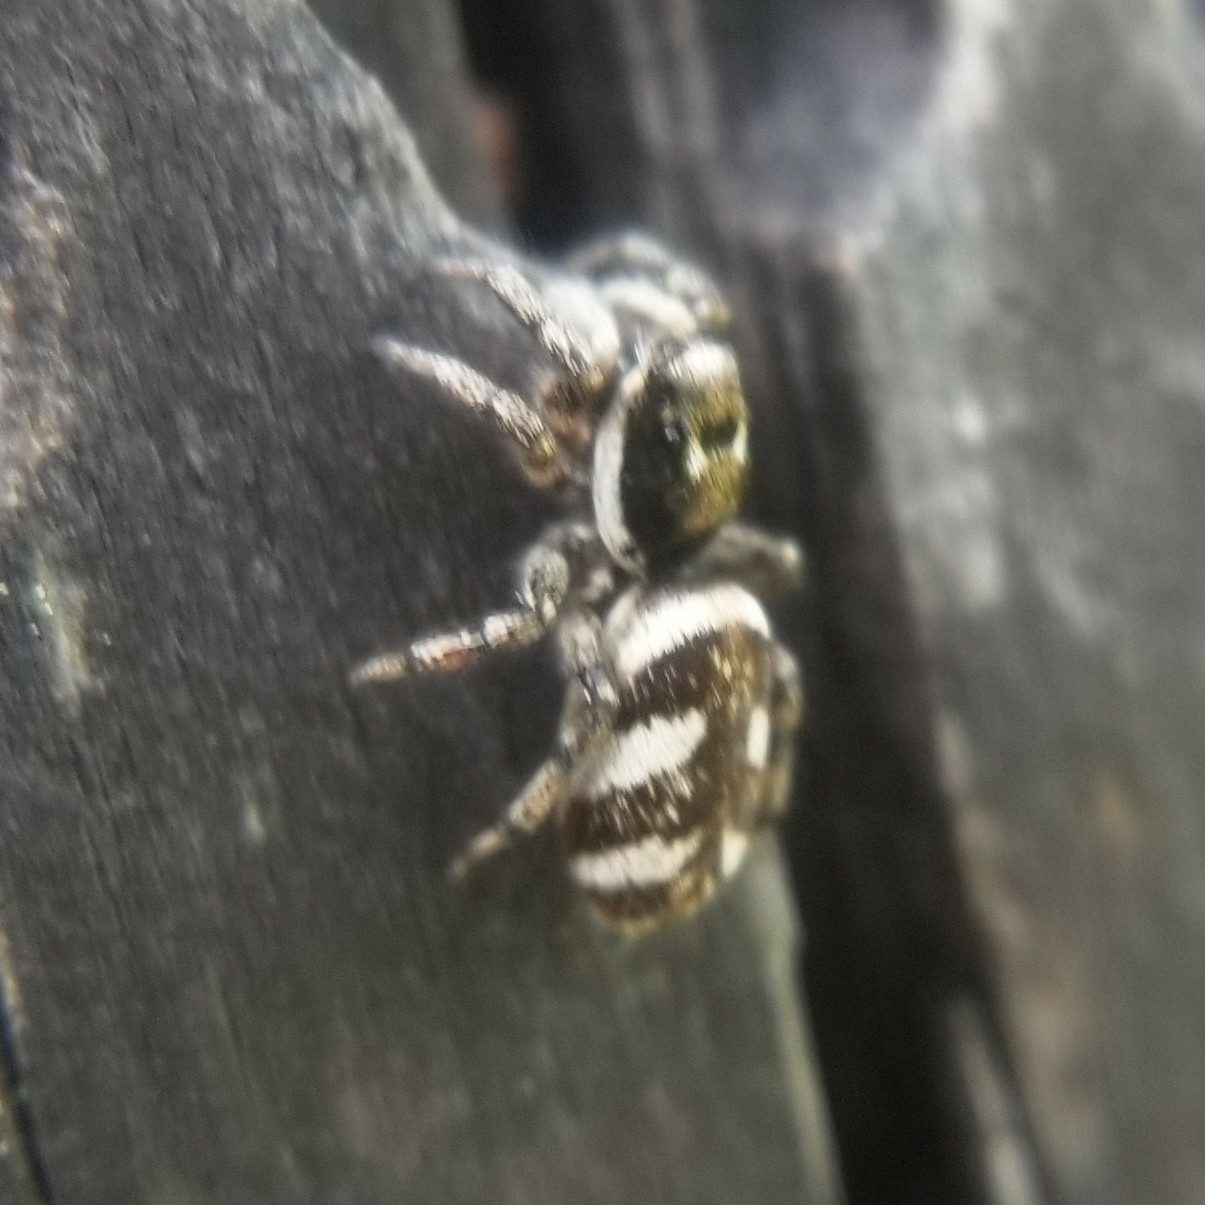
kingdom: Animalia
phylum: Arthropoda
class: Arachnida
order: Araneae
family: Salticidae
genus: Salticus
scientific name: Salticus scenicus
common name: Zebra jumper
